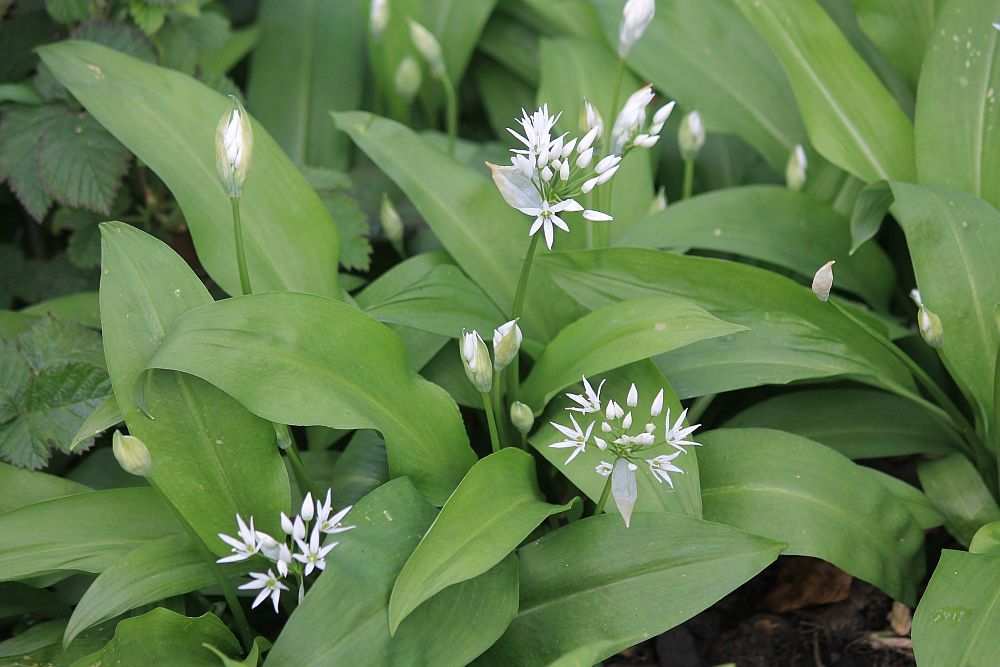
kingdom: Plantae
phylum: Tracheophyta
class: Liliopsida
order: Asparagales
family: Amaryllidaceae
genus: Allium
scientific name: Allium ursinum
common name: Ramsons
